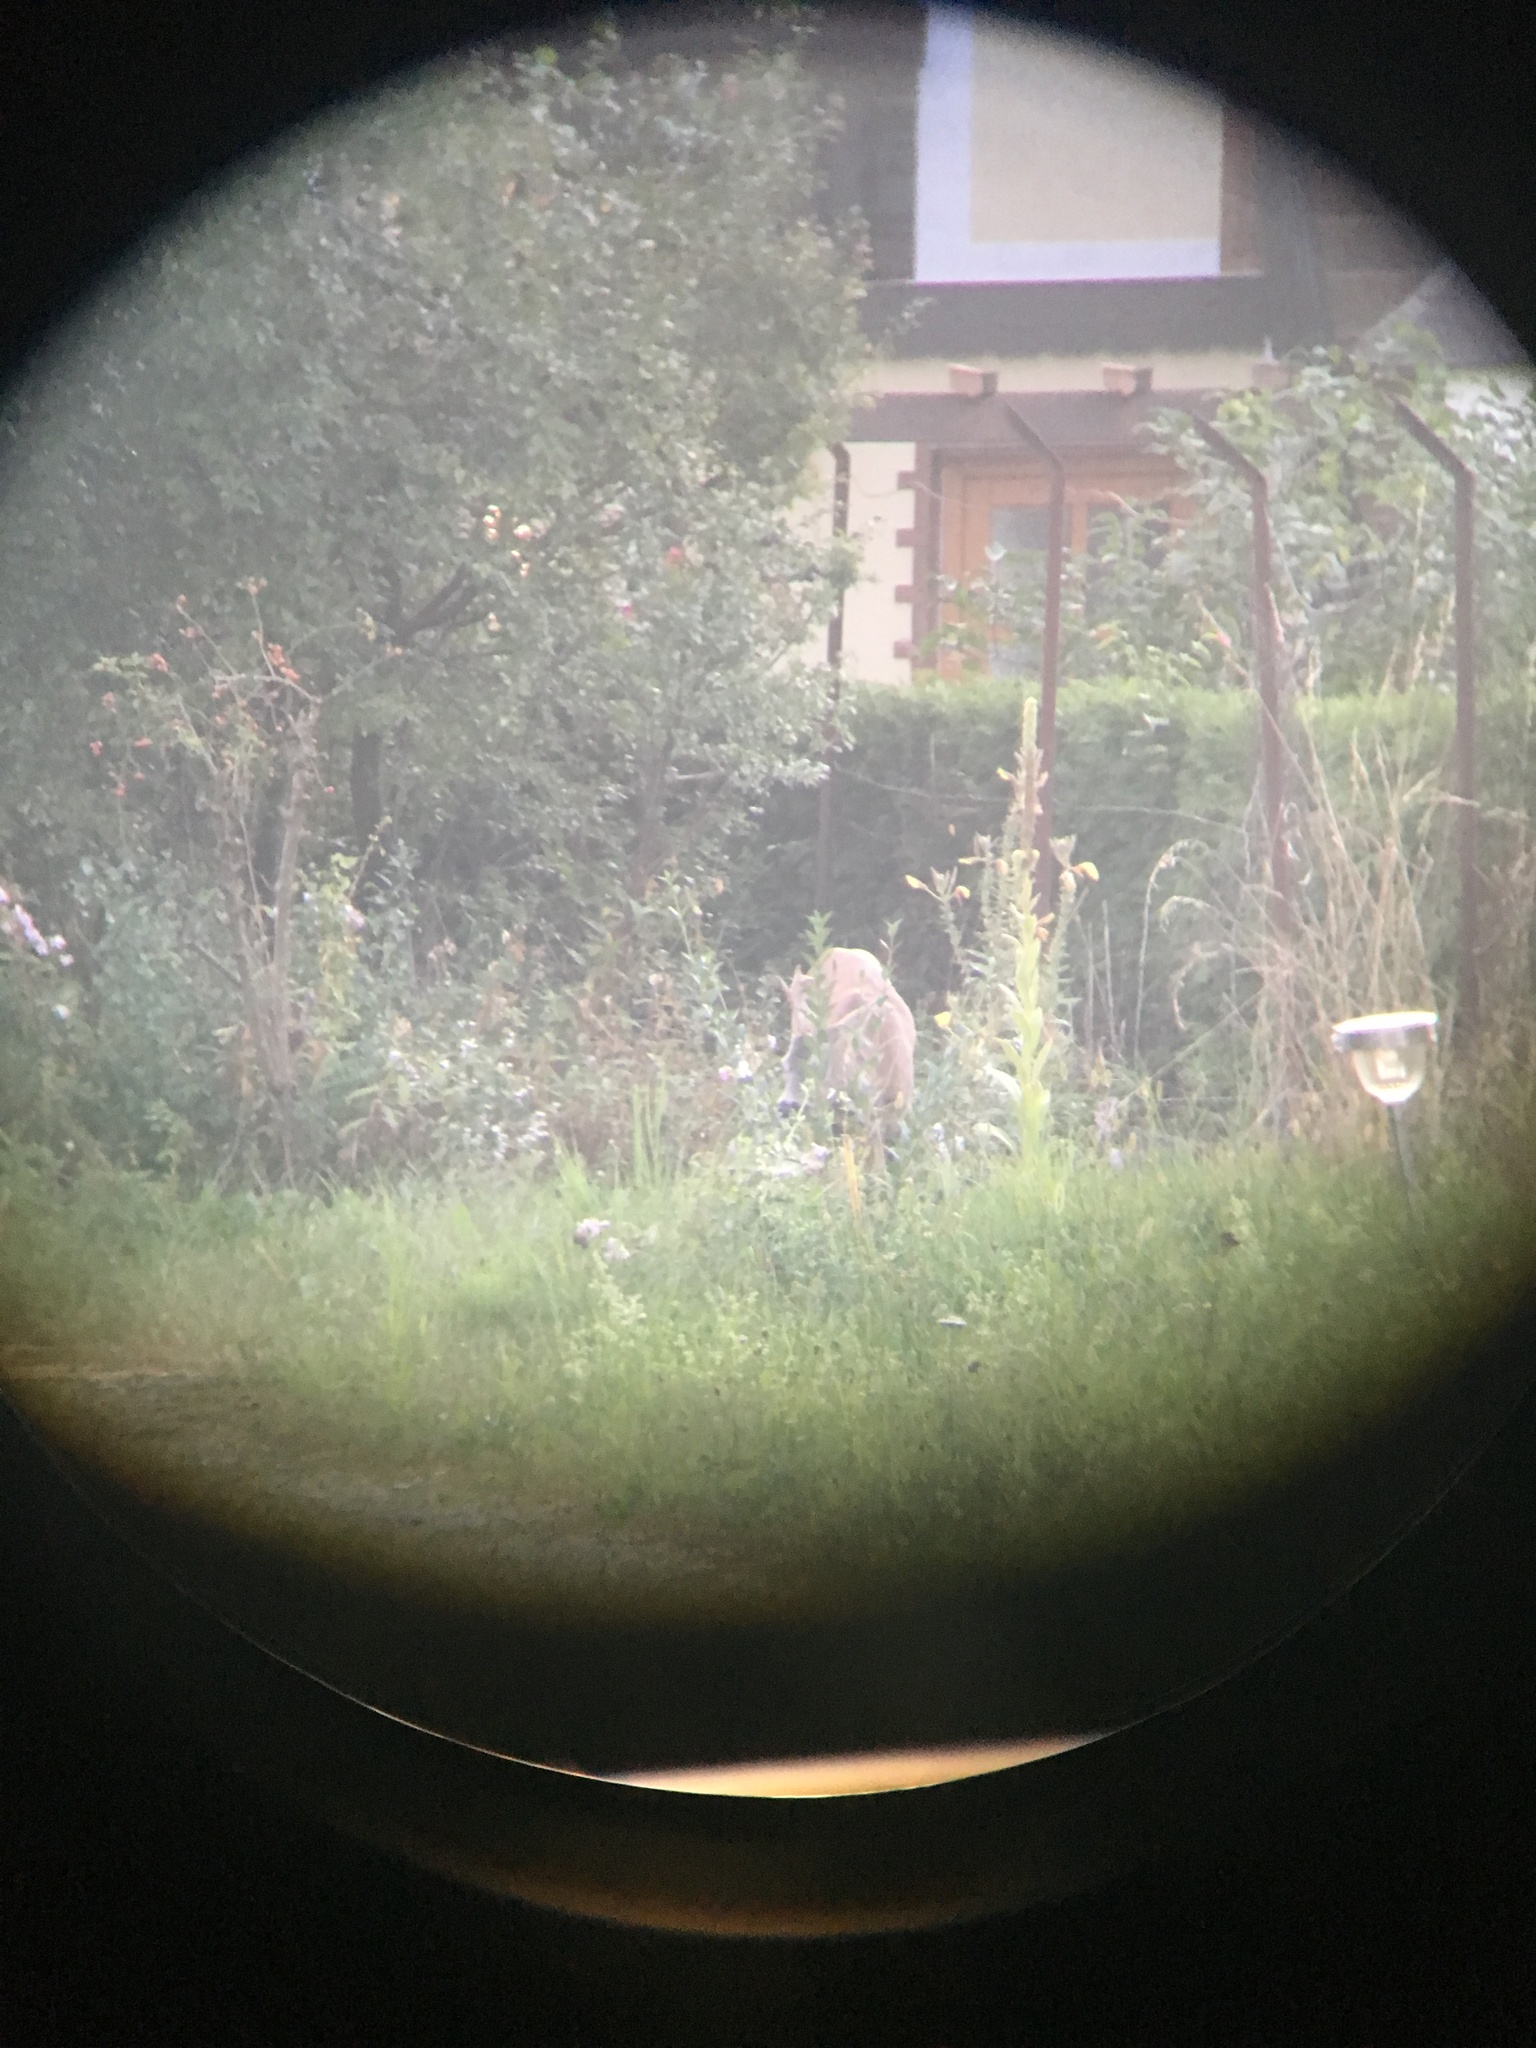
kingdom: Animalia
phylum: Chordata
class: Mammalia
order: Artiodactyla
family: Cervidae
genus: Capreolus
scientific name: Capreolus capreolus
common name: Western roe deer
